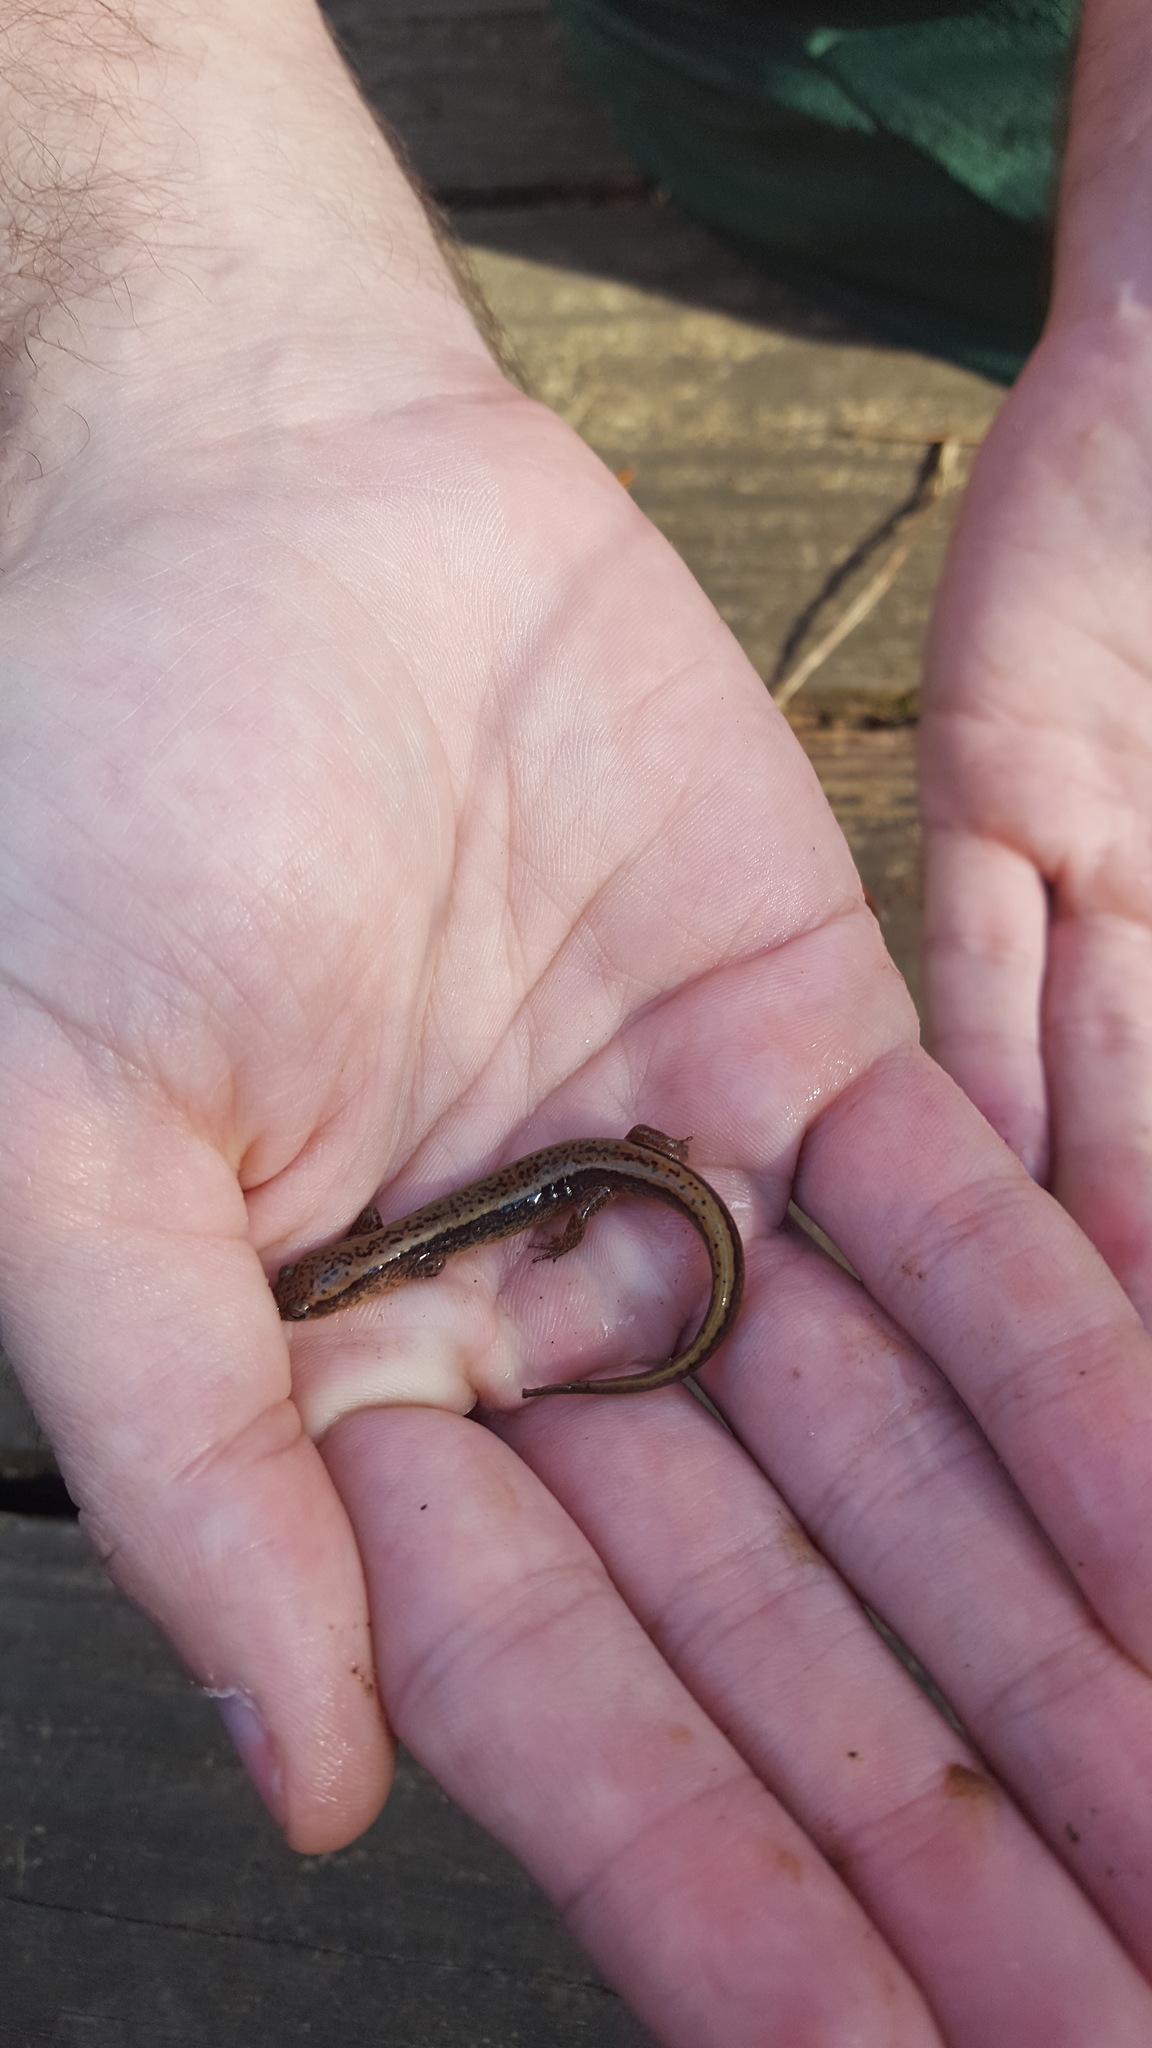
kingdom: Animalia
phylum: Chordata
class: Amphibia
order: Caudata
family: Plethodontidae
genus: Eurycea
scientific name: Eurycea
